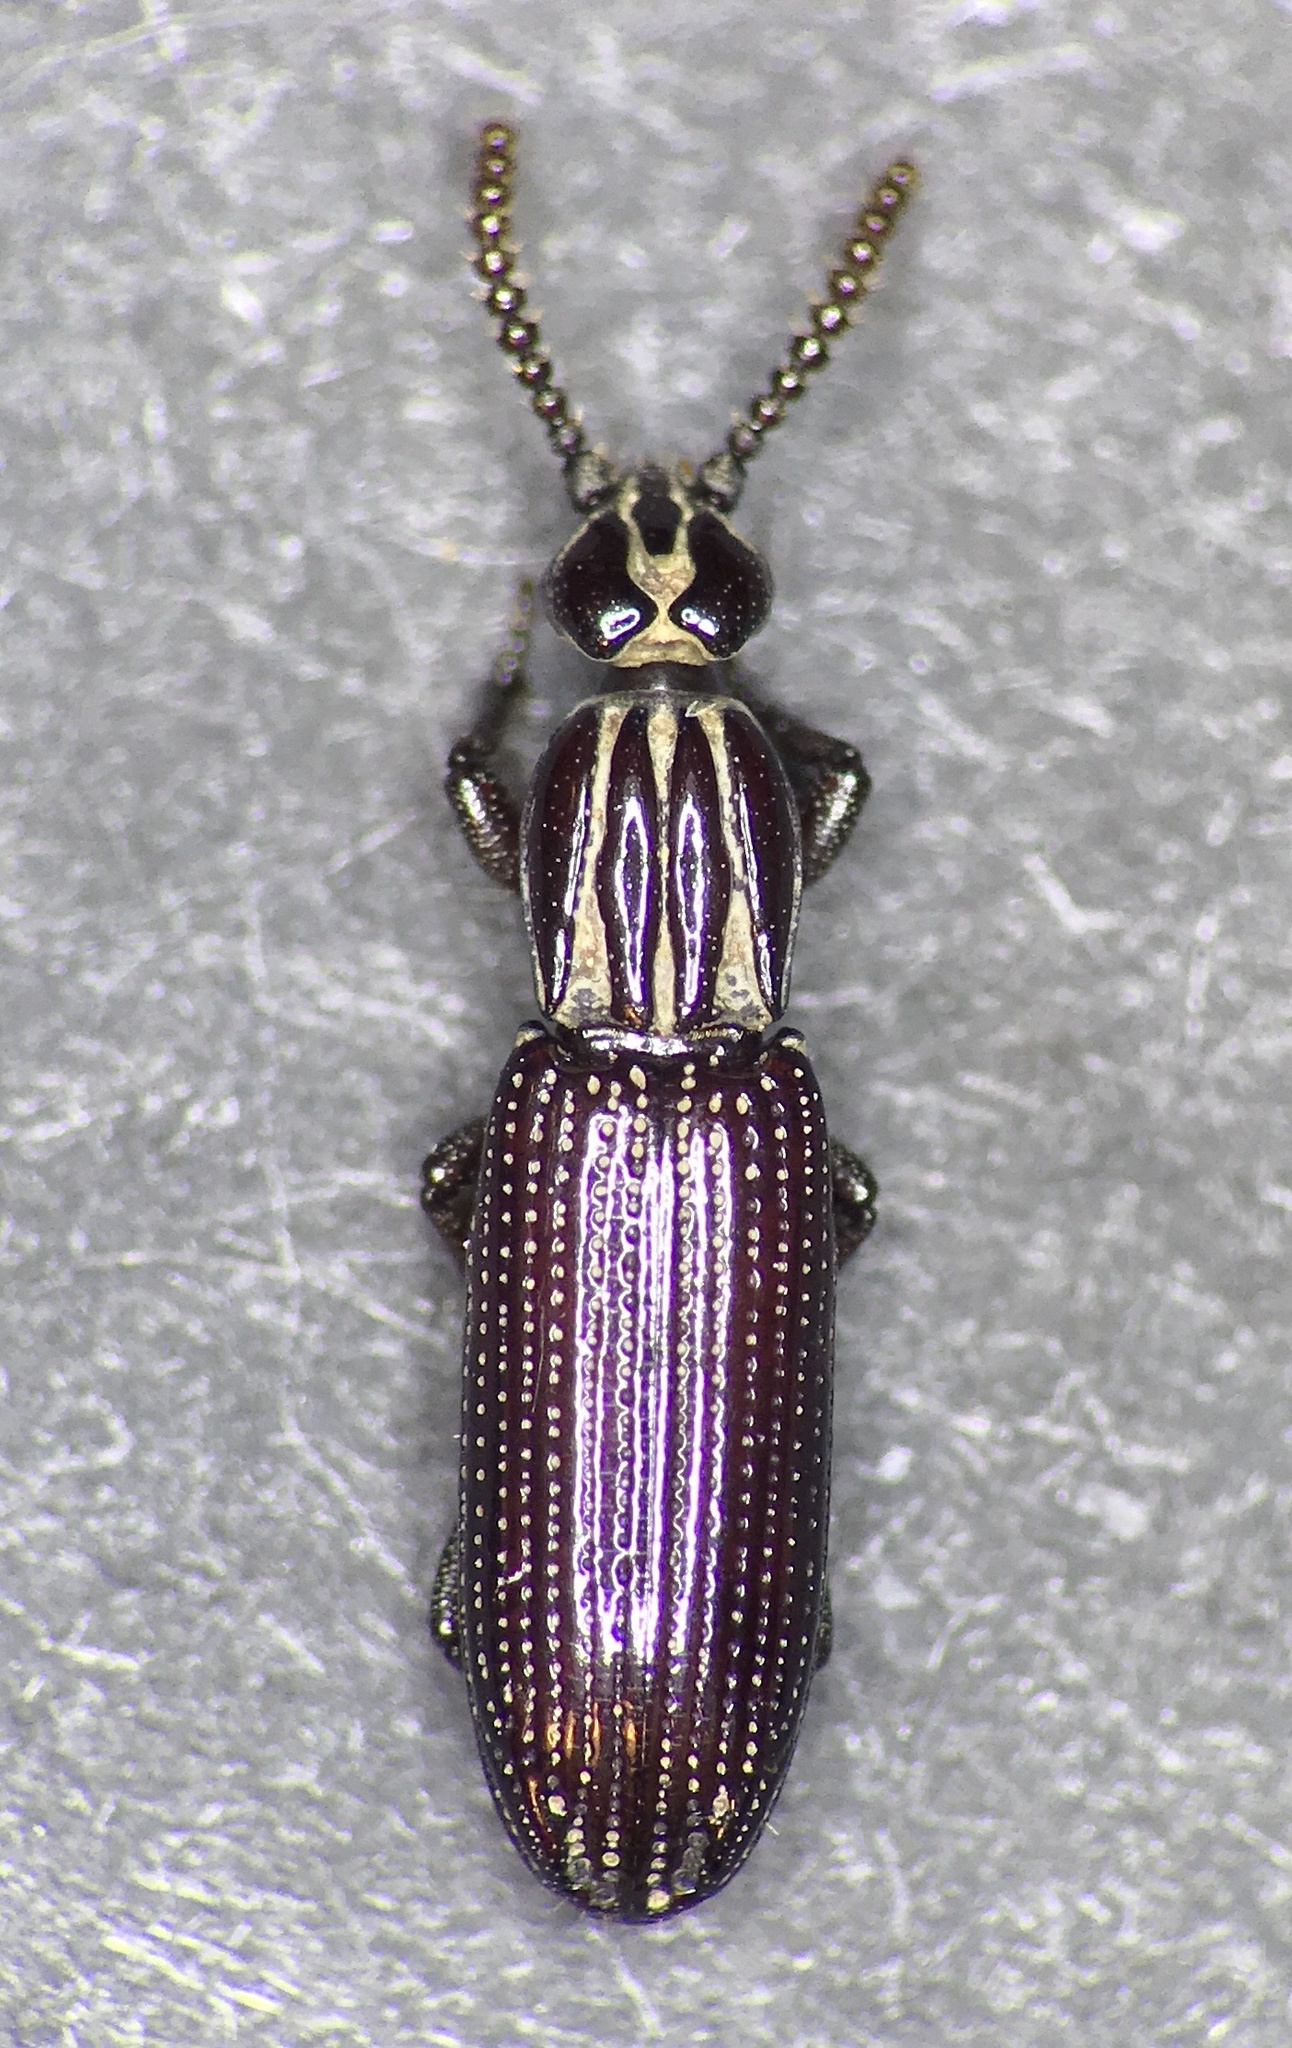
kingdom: Animalia
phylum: Arthropoda
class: Insecta
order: Coleoptera
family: Carabidae
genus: Omoglymmius
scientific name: Omoglymmius americanus
